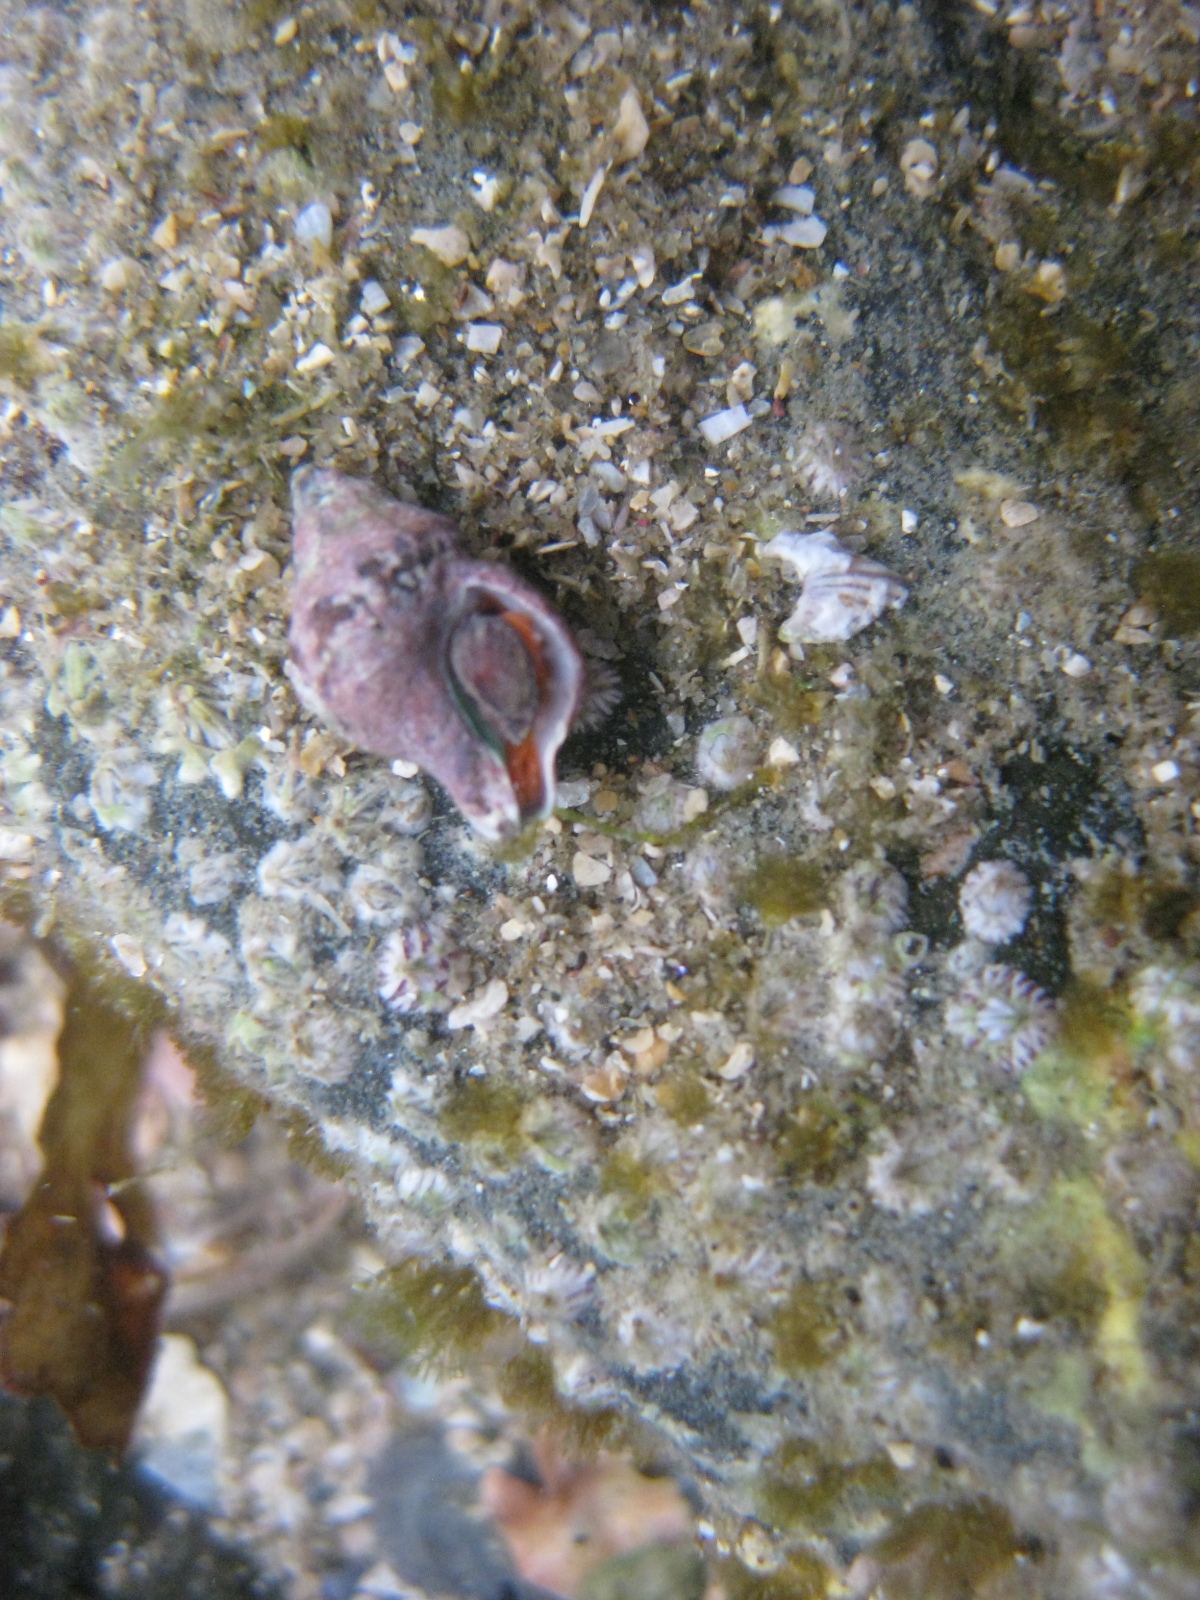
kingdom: Animalia
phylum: Mollusca
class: Gastropoda
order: Neogastropoda
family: Fasciolariidae
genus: Taron
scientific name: Taron dubius
